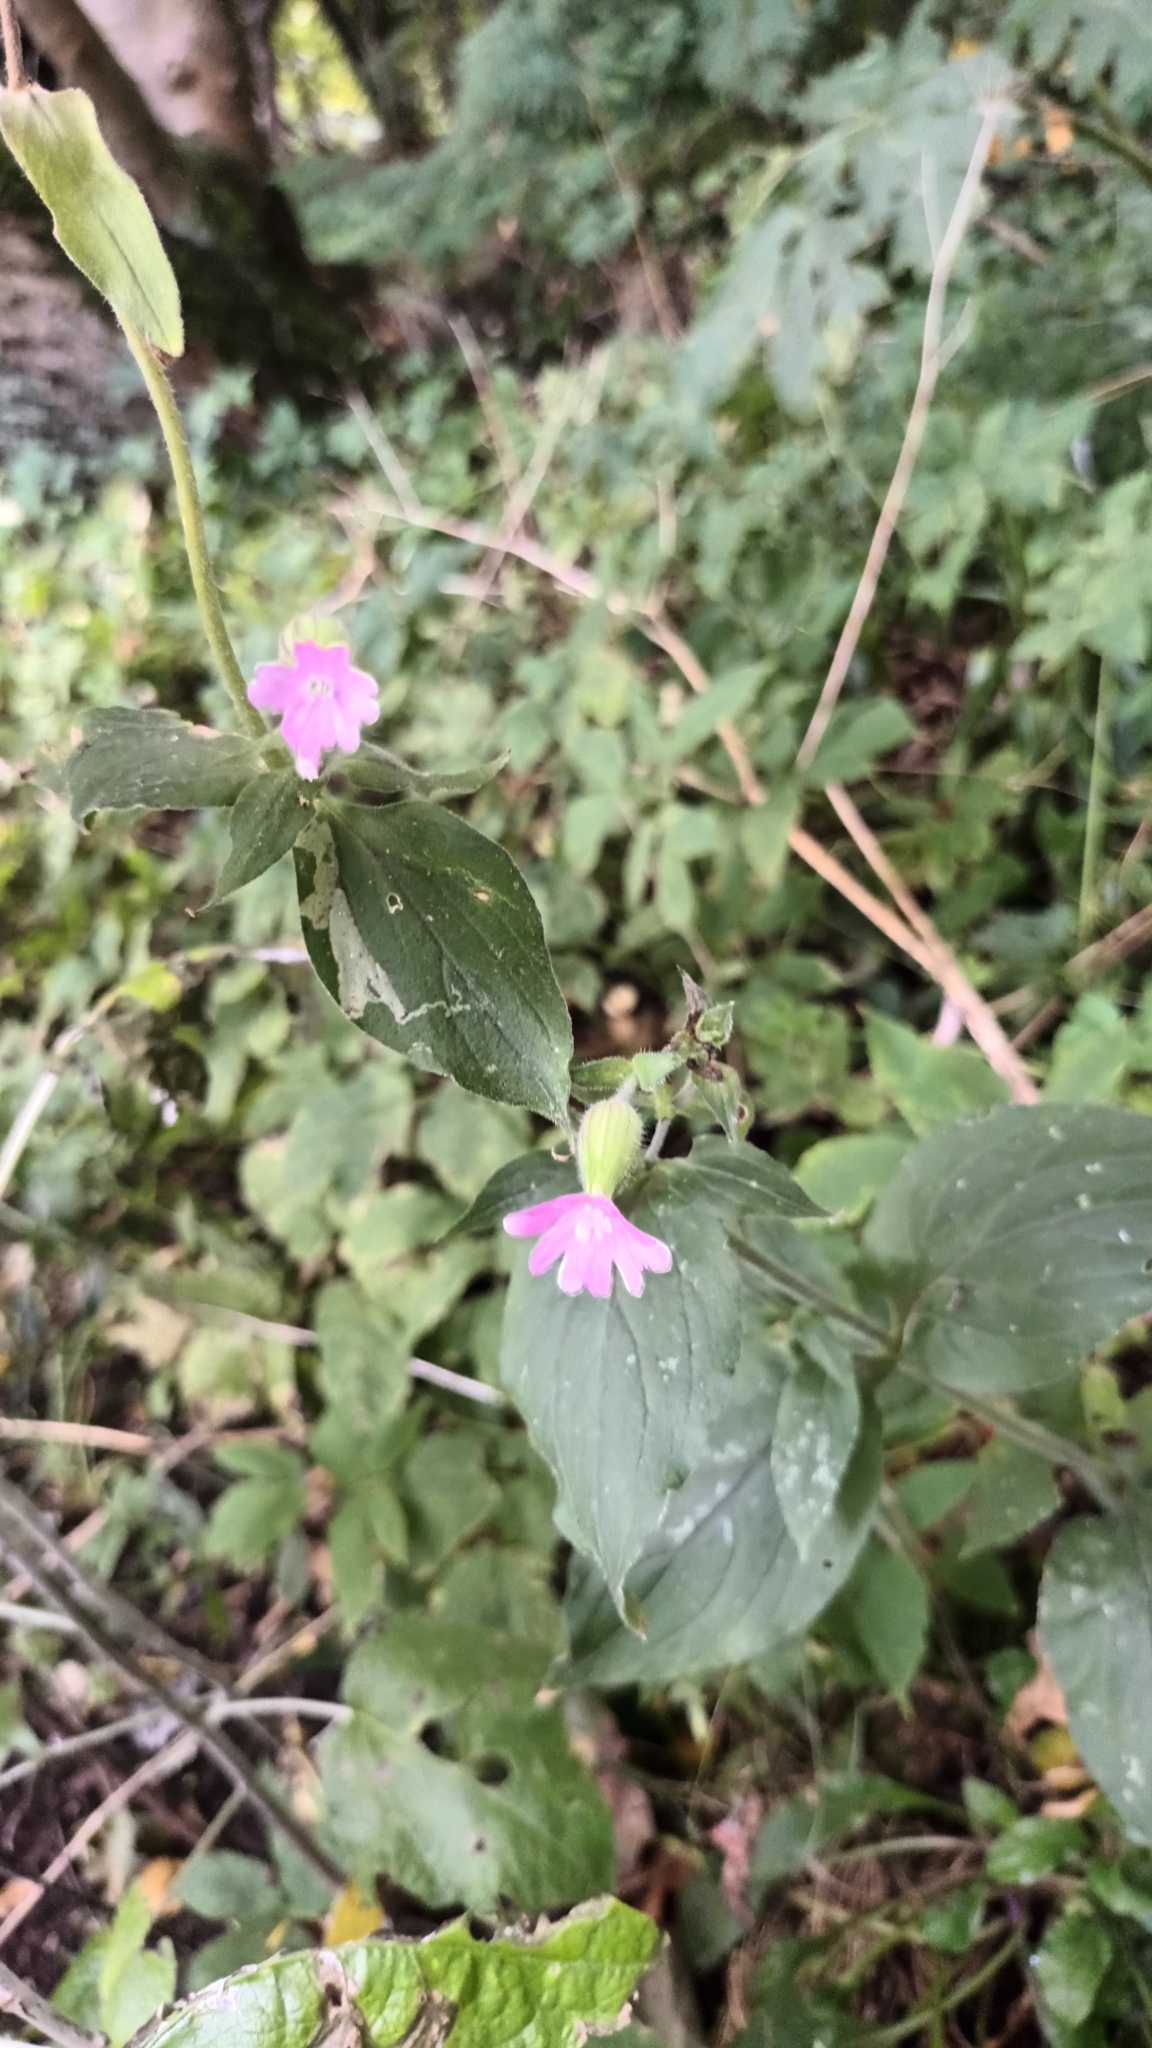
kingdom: Plantae
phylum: Tracheophyta
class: Magnoliopsida
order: Caryophyllales
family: Caryophyllaceae
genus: Silene
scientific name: Silene dioica
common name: Red campion
